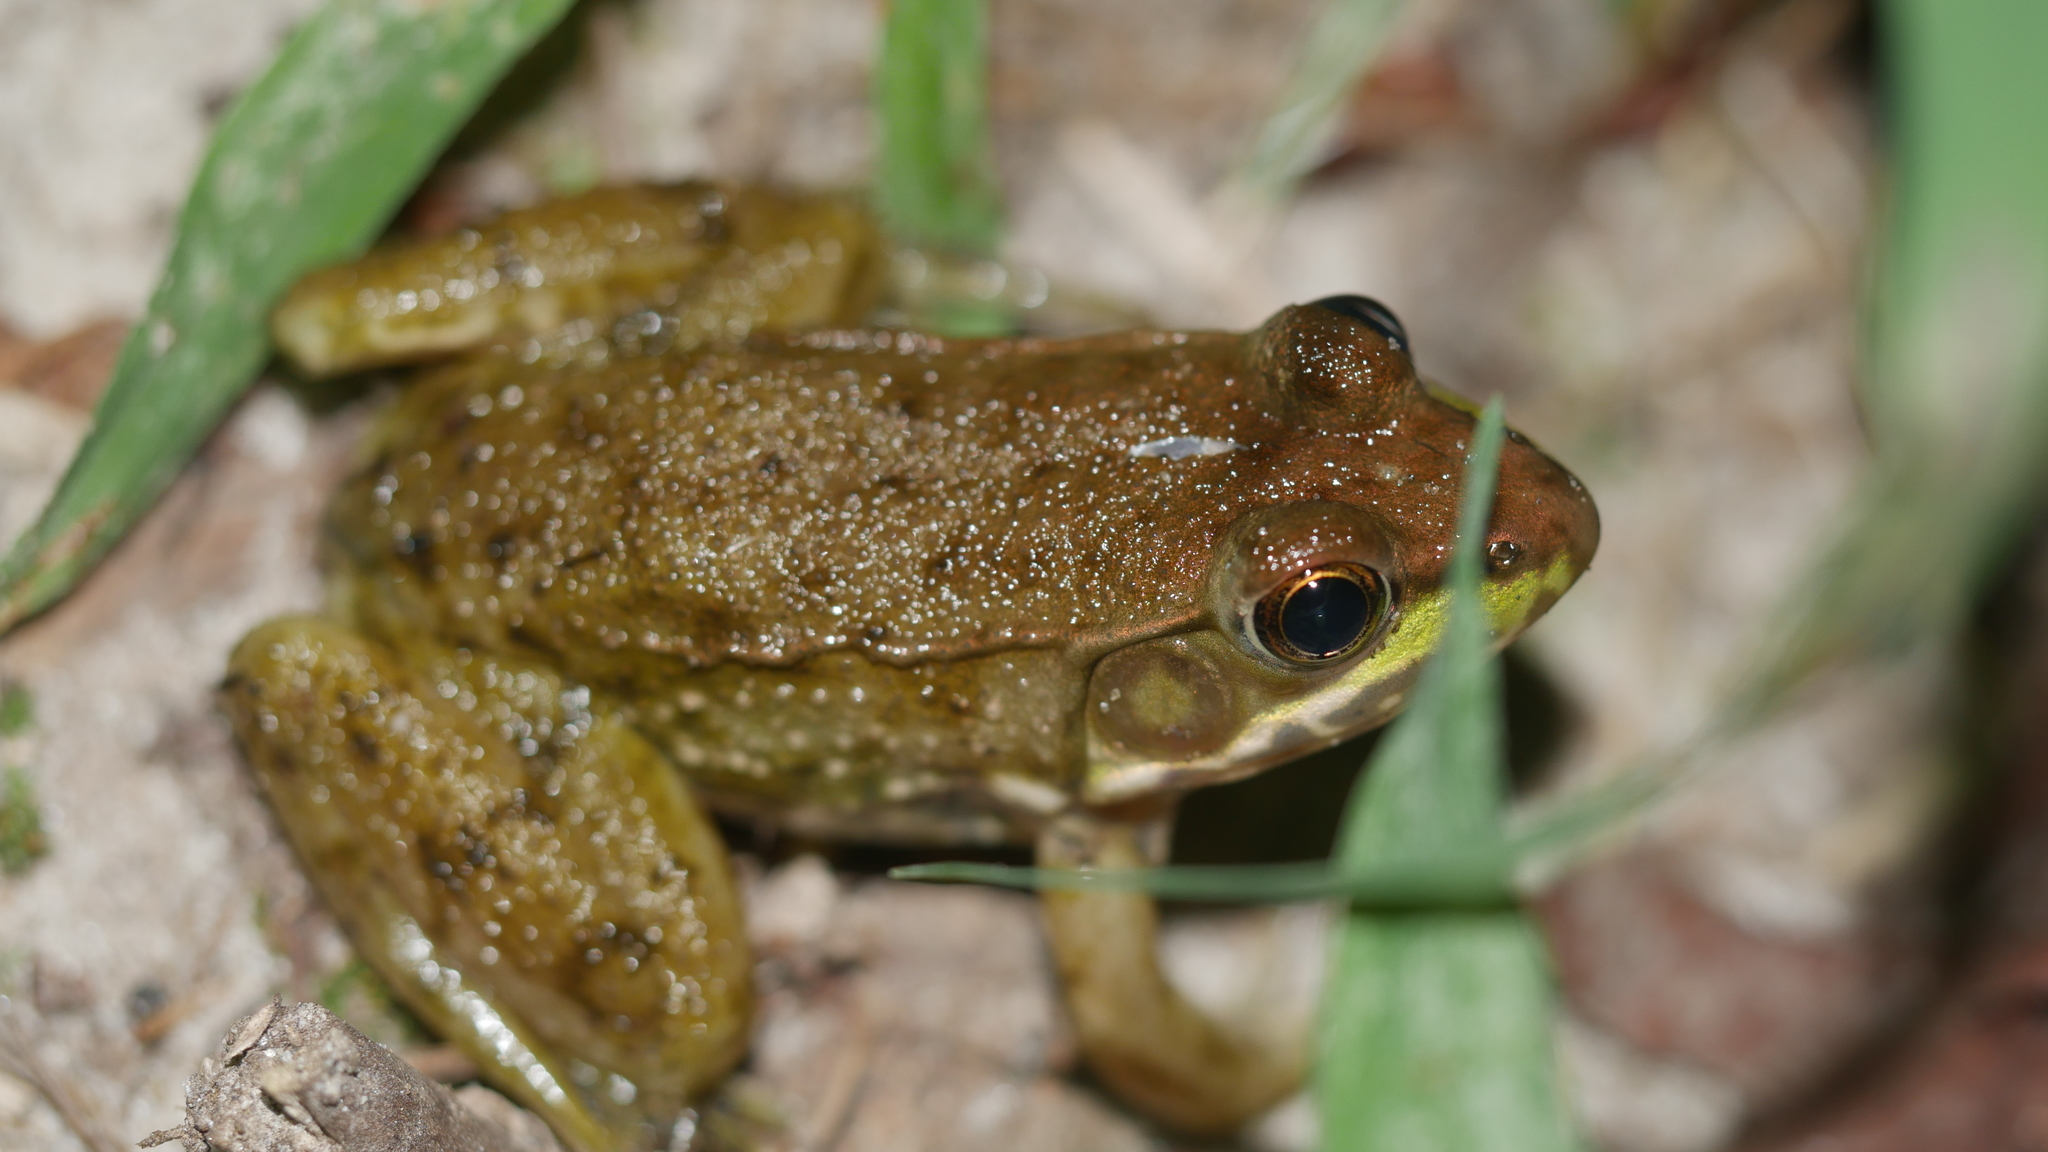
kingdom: Animalia
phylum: Chordata
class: Amphibia
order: Anura
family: Ranidae
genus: Lithobates
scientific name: Lithobates clamitans
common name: Green frog
